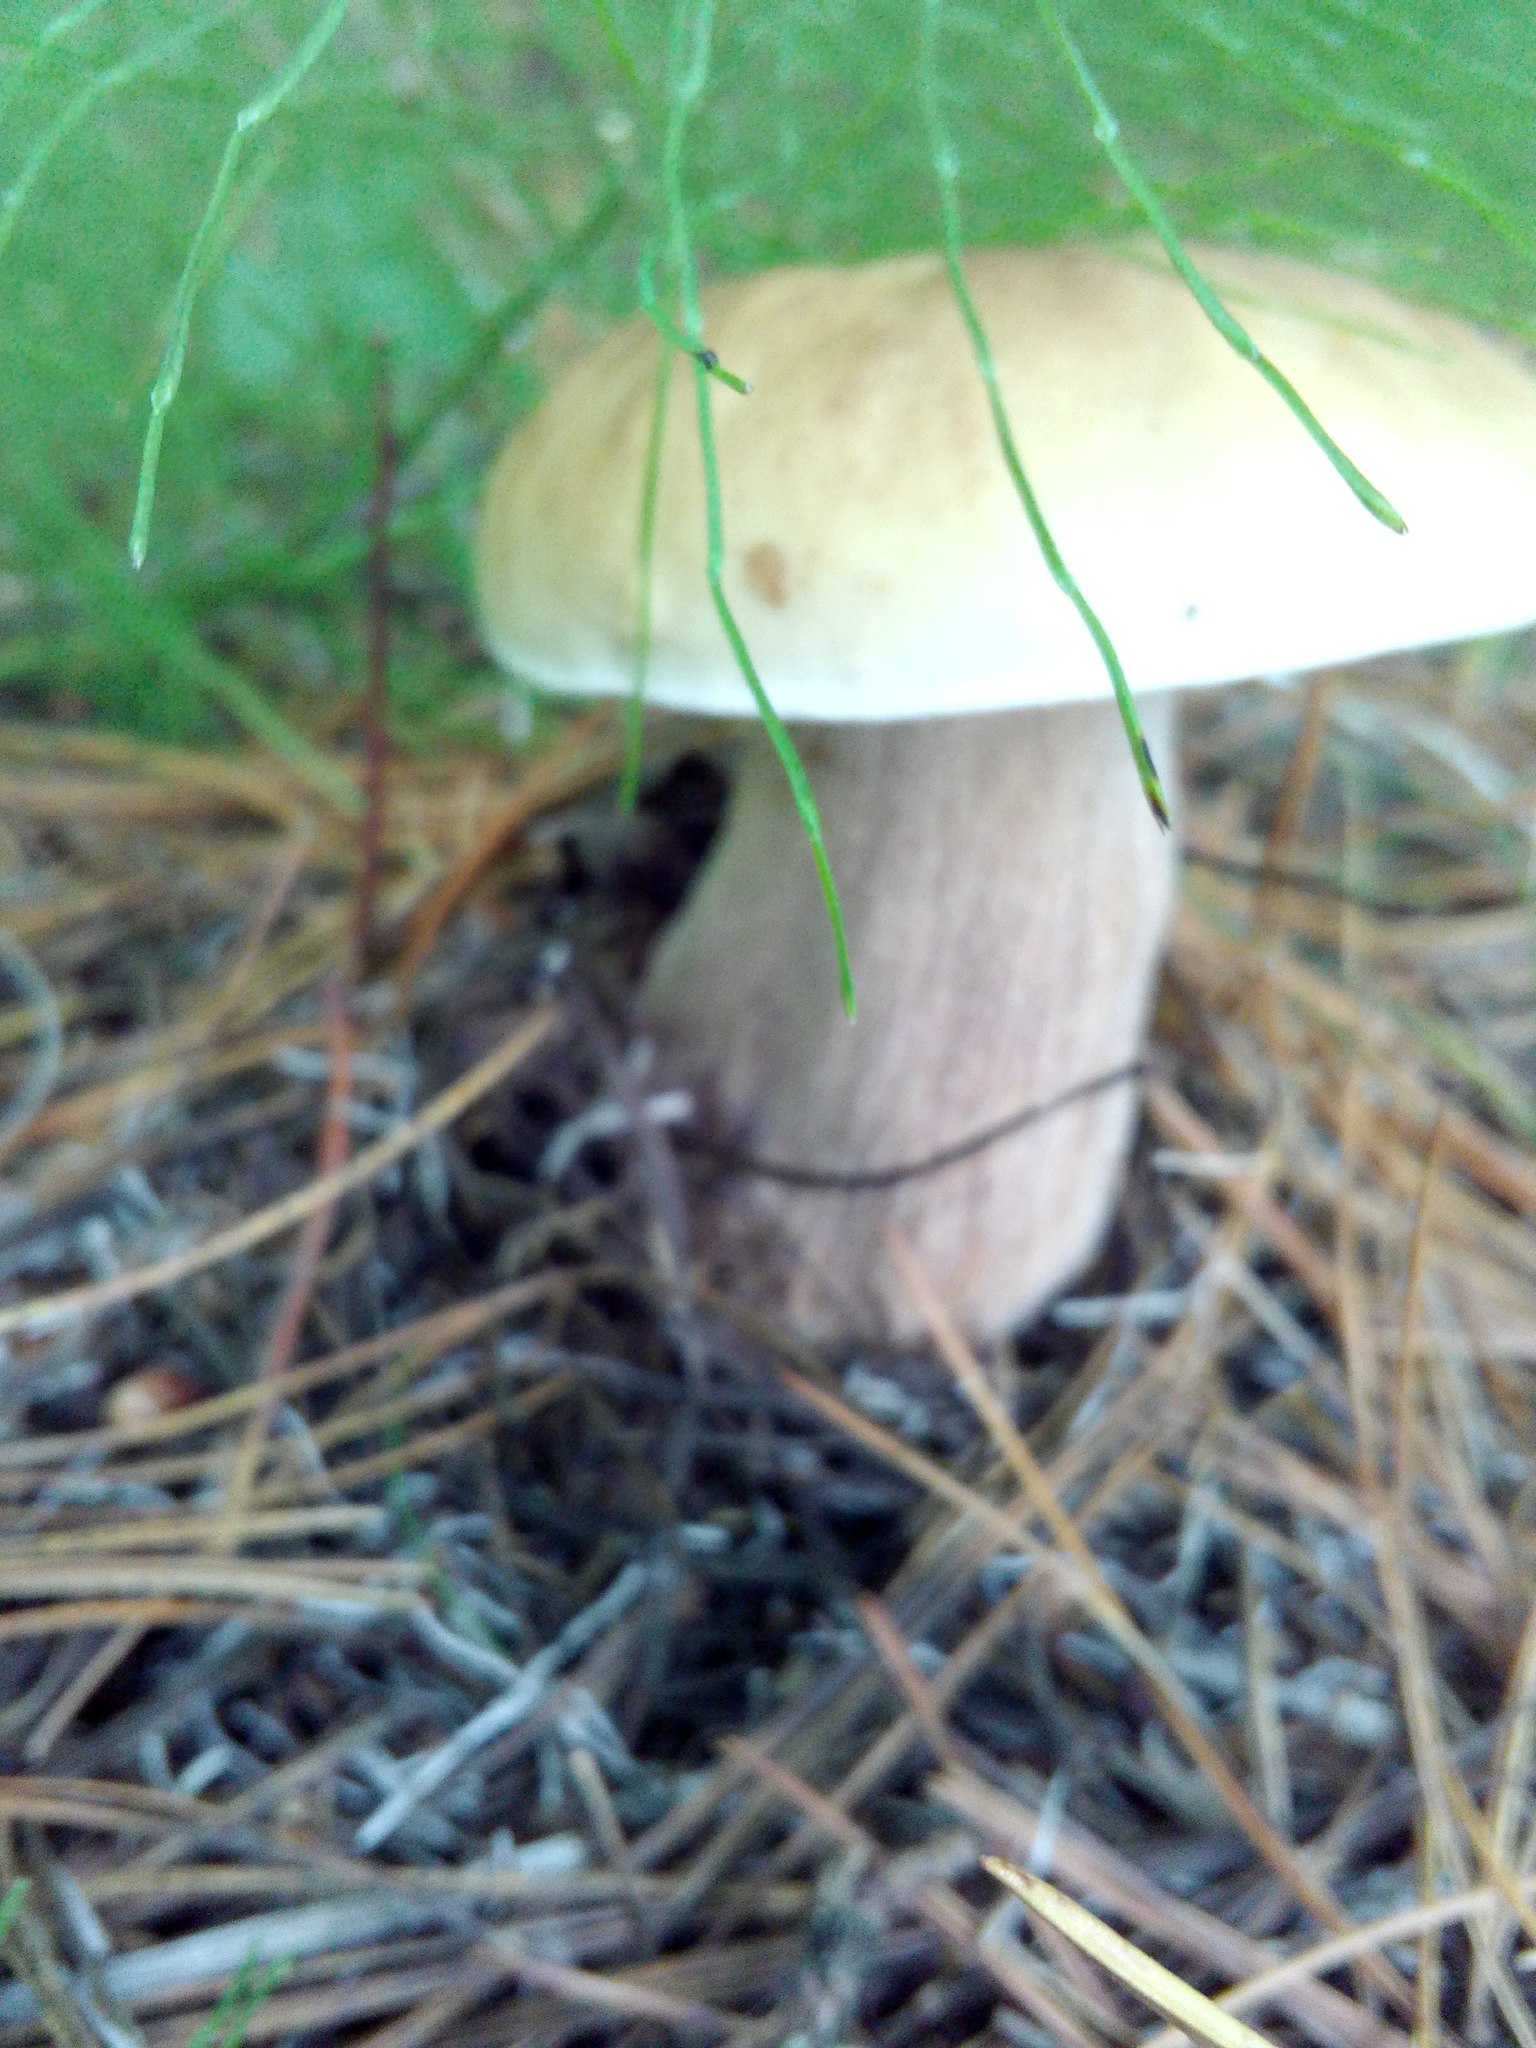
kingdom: Fungi
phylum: Basidiomycota
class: Agaricomycetes
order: Boletales
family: Boletaceae
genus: Boletus
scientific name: Boletus edulis
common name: Cep
